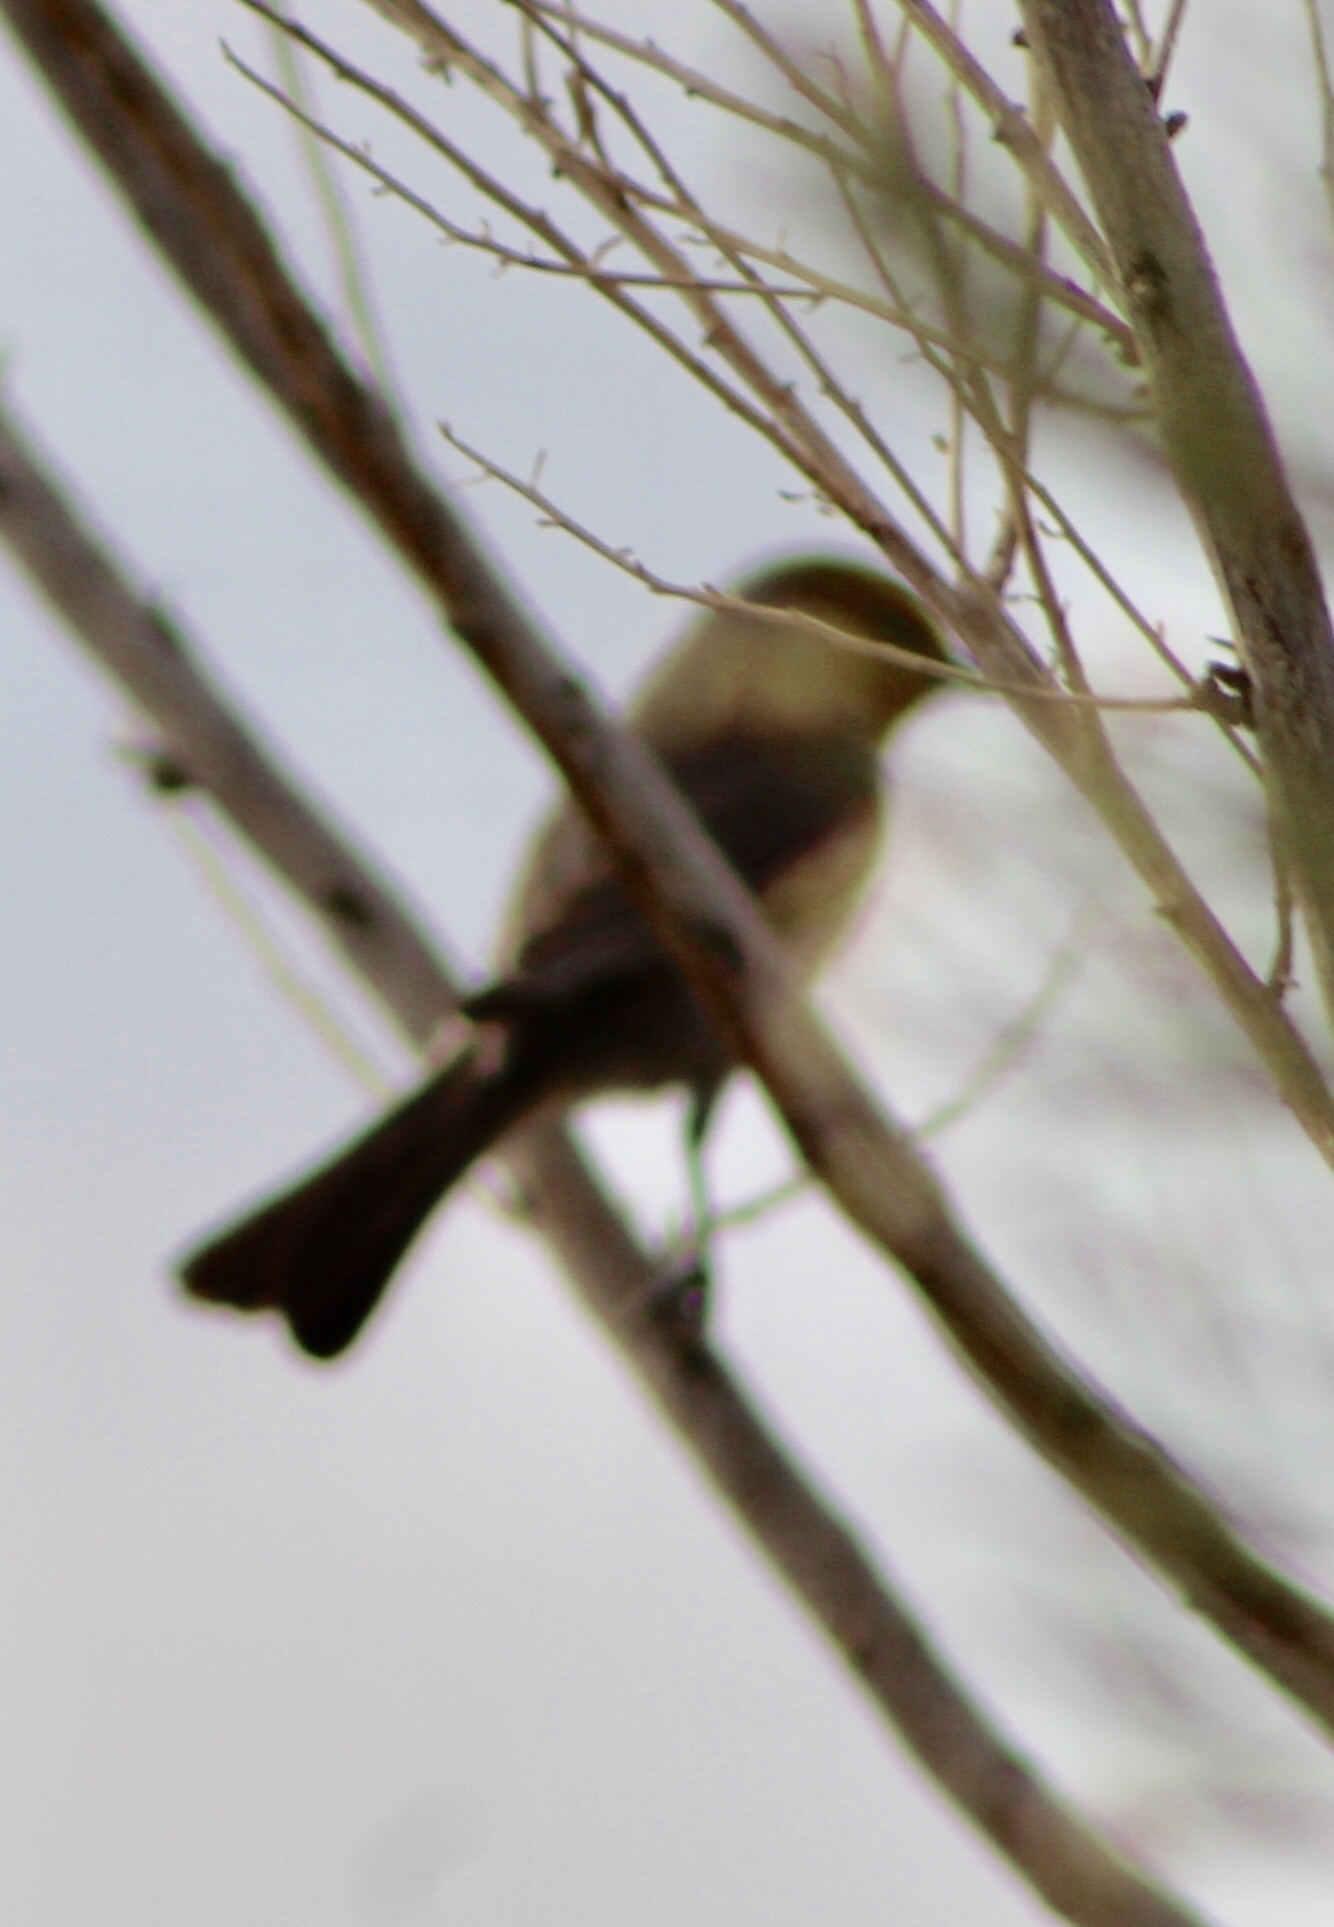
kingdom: Animalia
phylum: Chordata
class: Aves
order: Passeriformes
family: Remizidae
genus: Auriparus
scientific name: Auriparus flaviceps
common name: Verdin
